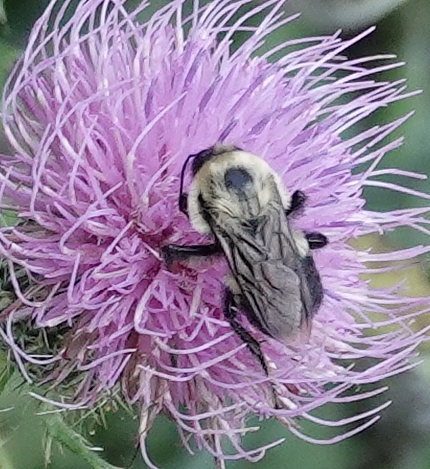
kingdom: Animalia
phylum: Arthropoda
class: Insecta
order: Hymenoptera
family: Apidae
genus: Bombus
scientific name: Bombus griseocollis
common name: Brown-belted bumble bee
